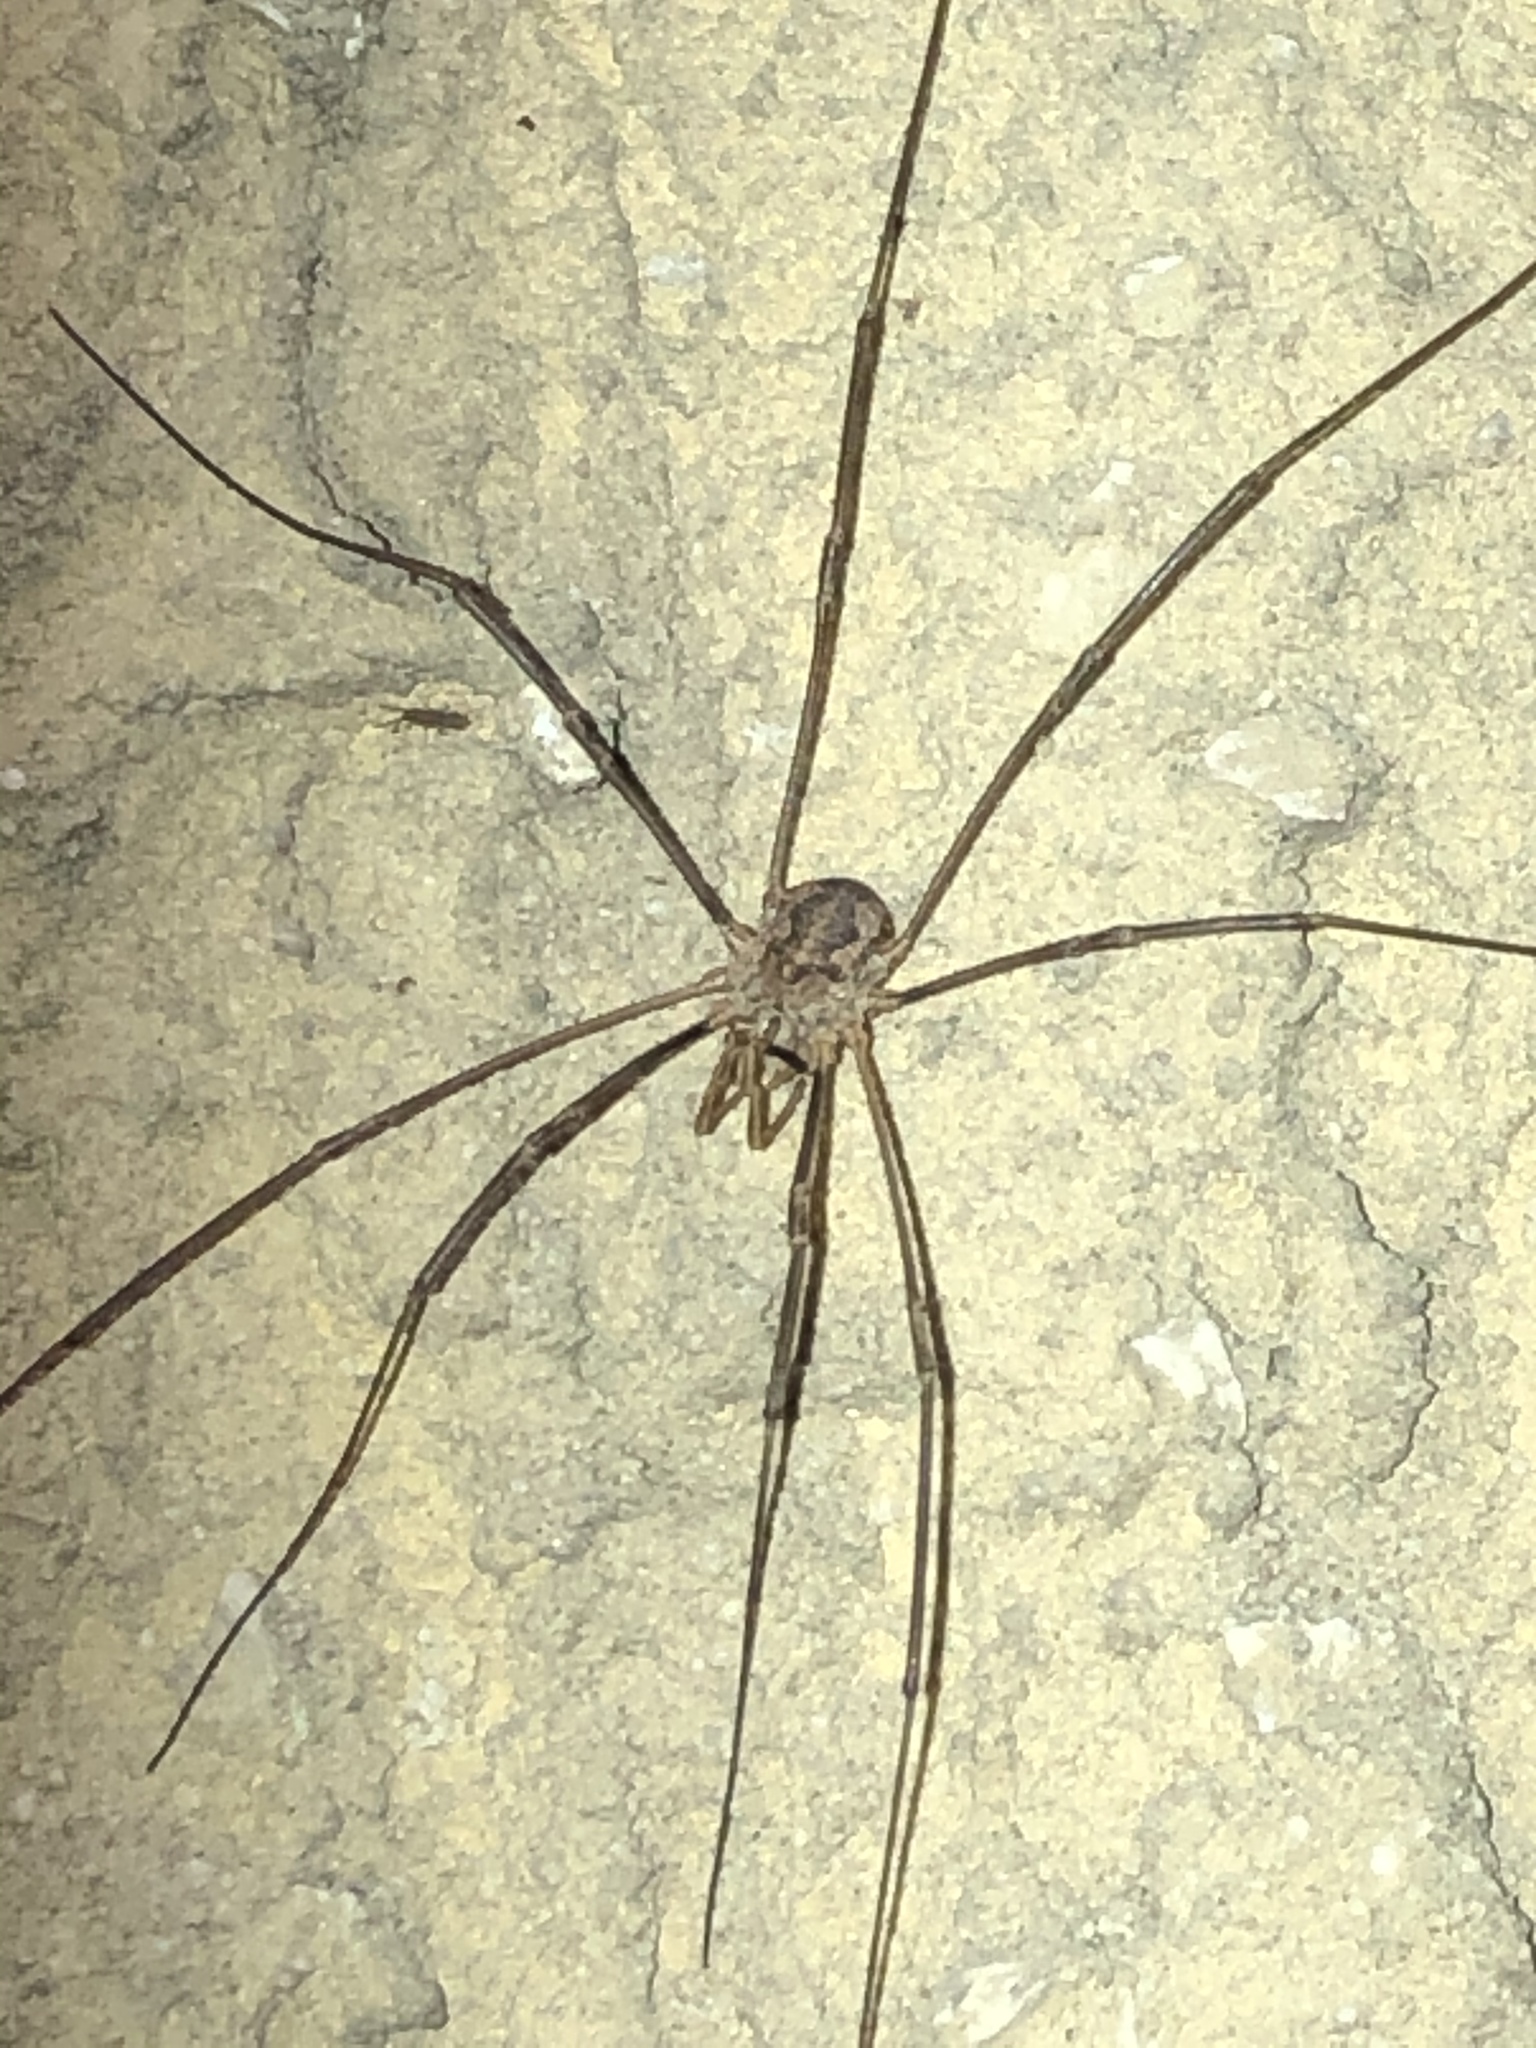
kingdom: Animalia
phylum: Arthropoda
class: Arachnida
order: Opiliones
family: Phalangiidae
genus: Phalangium
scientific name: Phalangium opilio
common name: Daddy longleg
